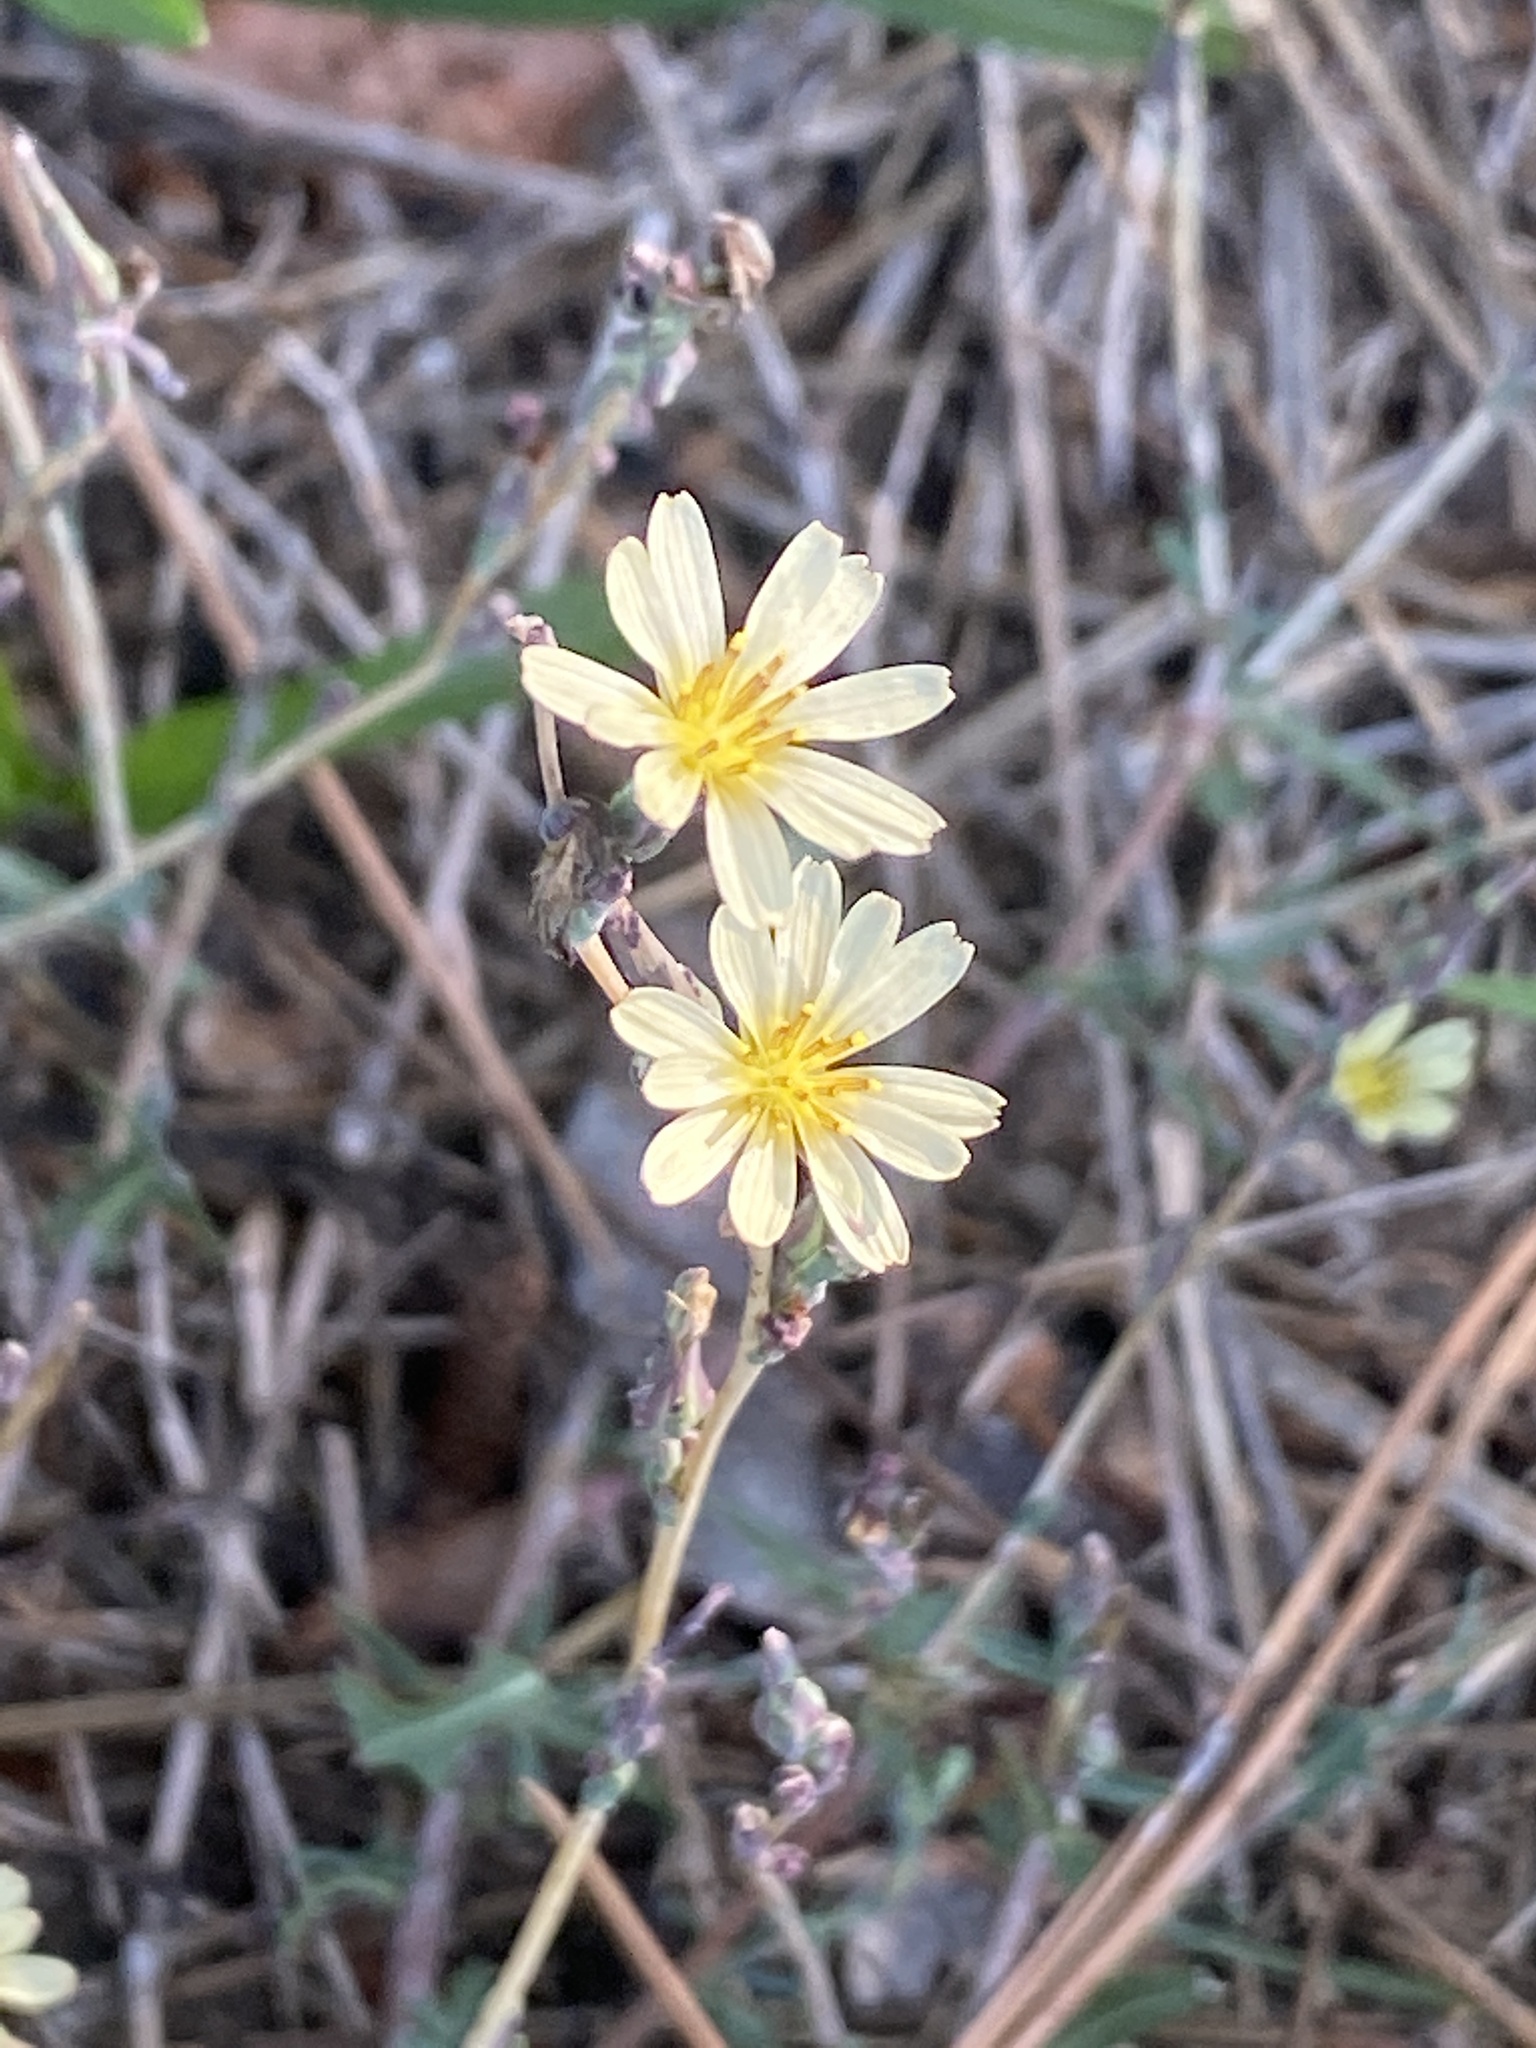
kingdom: Plantae
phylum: Tracheophyta
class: Magnoliopsida
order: Asterales
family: Asteraceae
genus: Lactuca
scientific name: Lactuca saligna
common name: Wild lettuce
